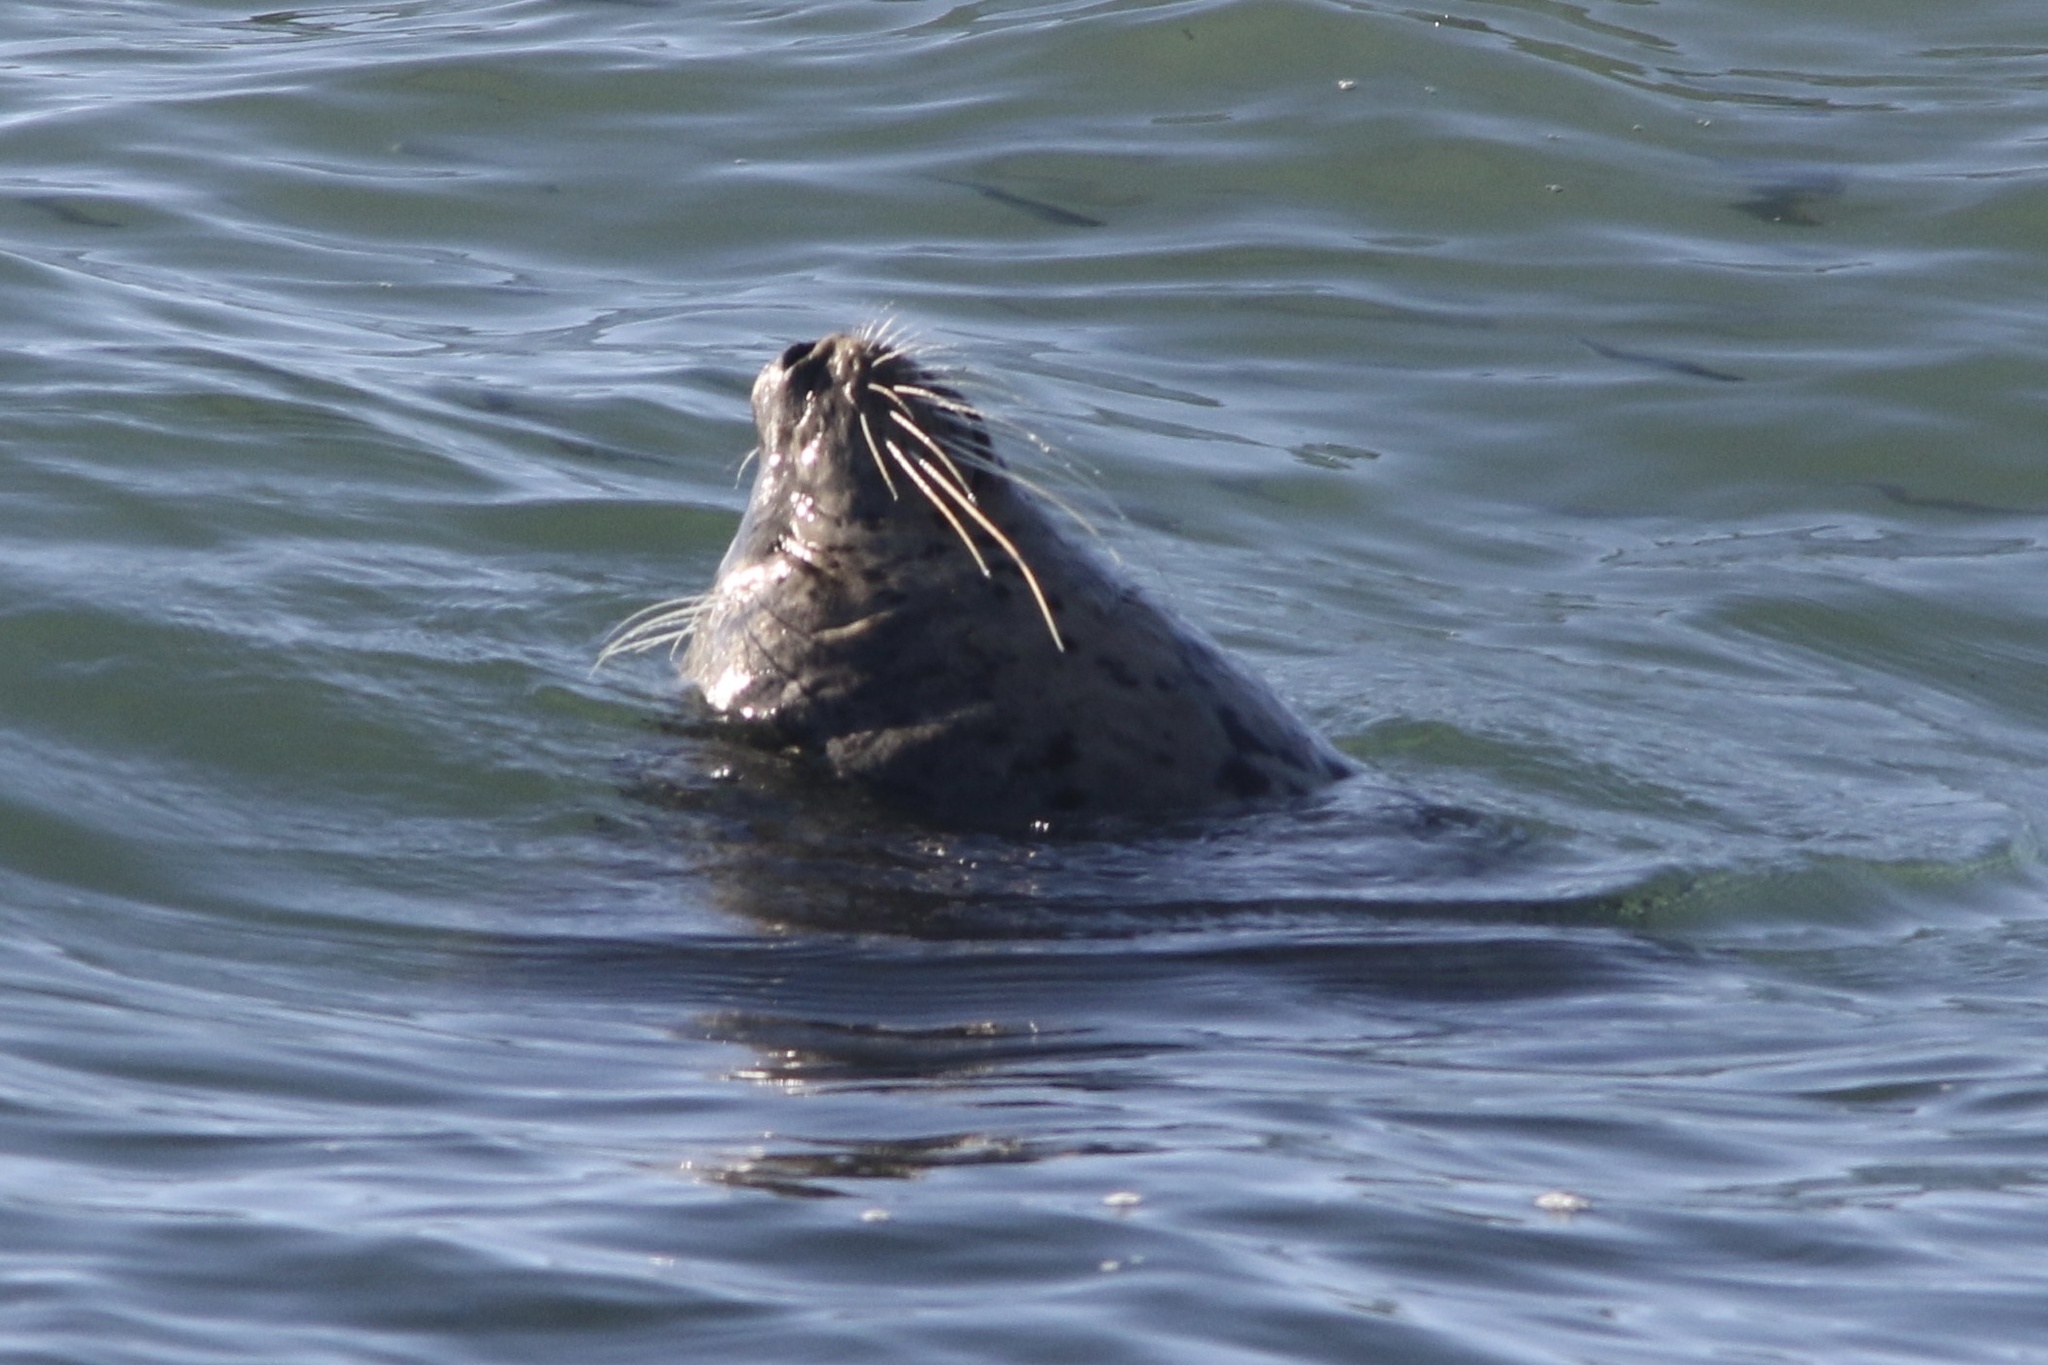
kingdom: Animalia
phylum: Chordata
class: Mammalia
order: Carnivora
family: Phocidae
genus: Phoca
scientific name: Phoca vitulina
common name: Harbor seal
